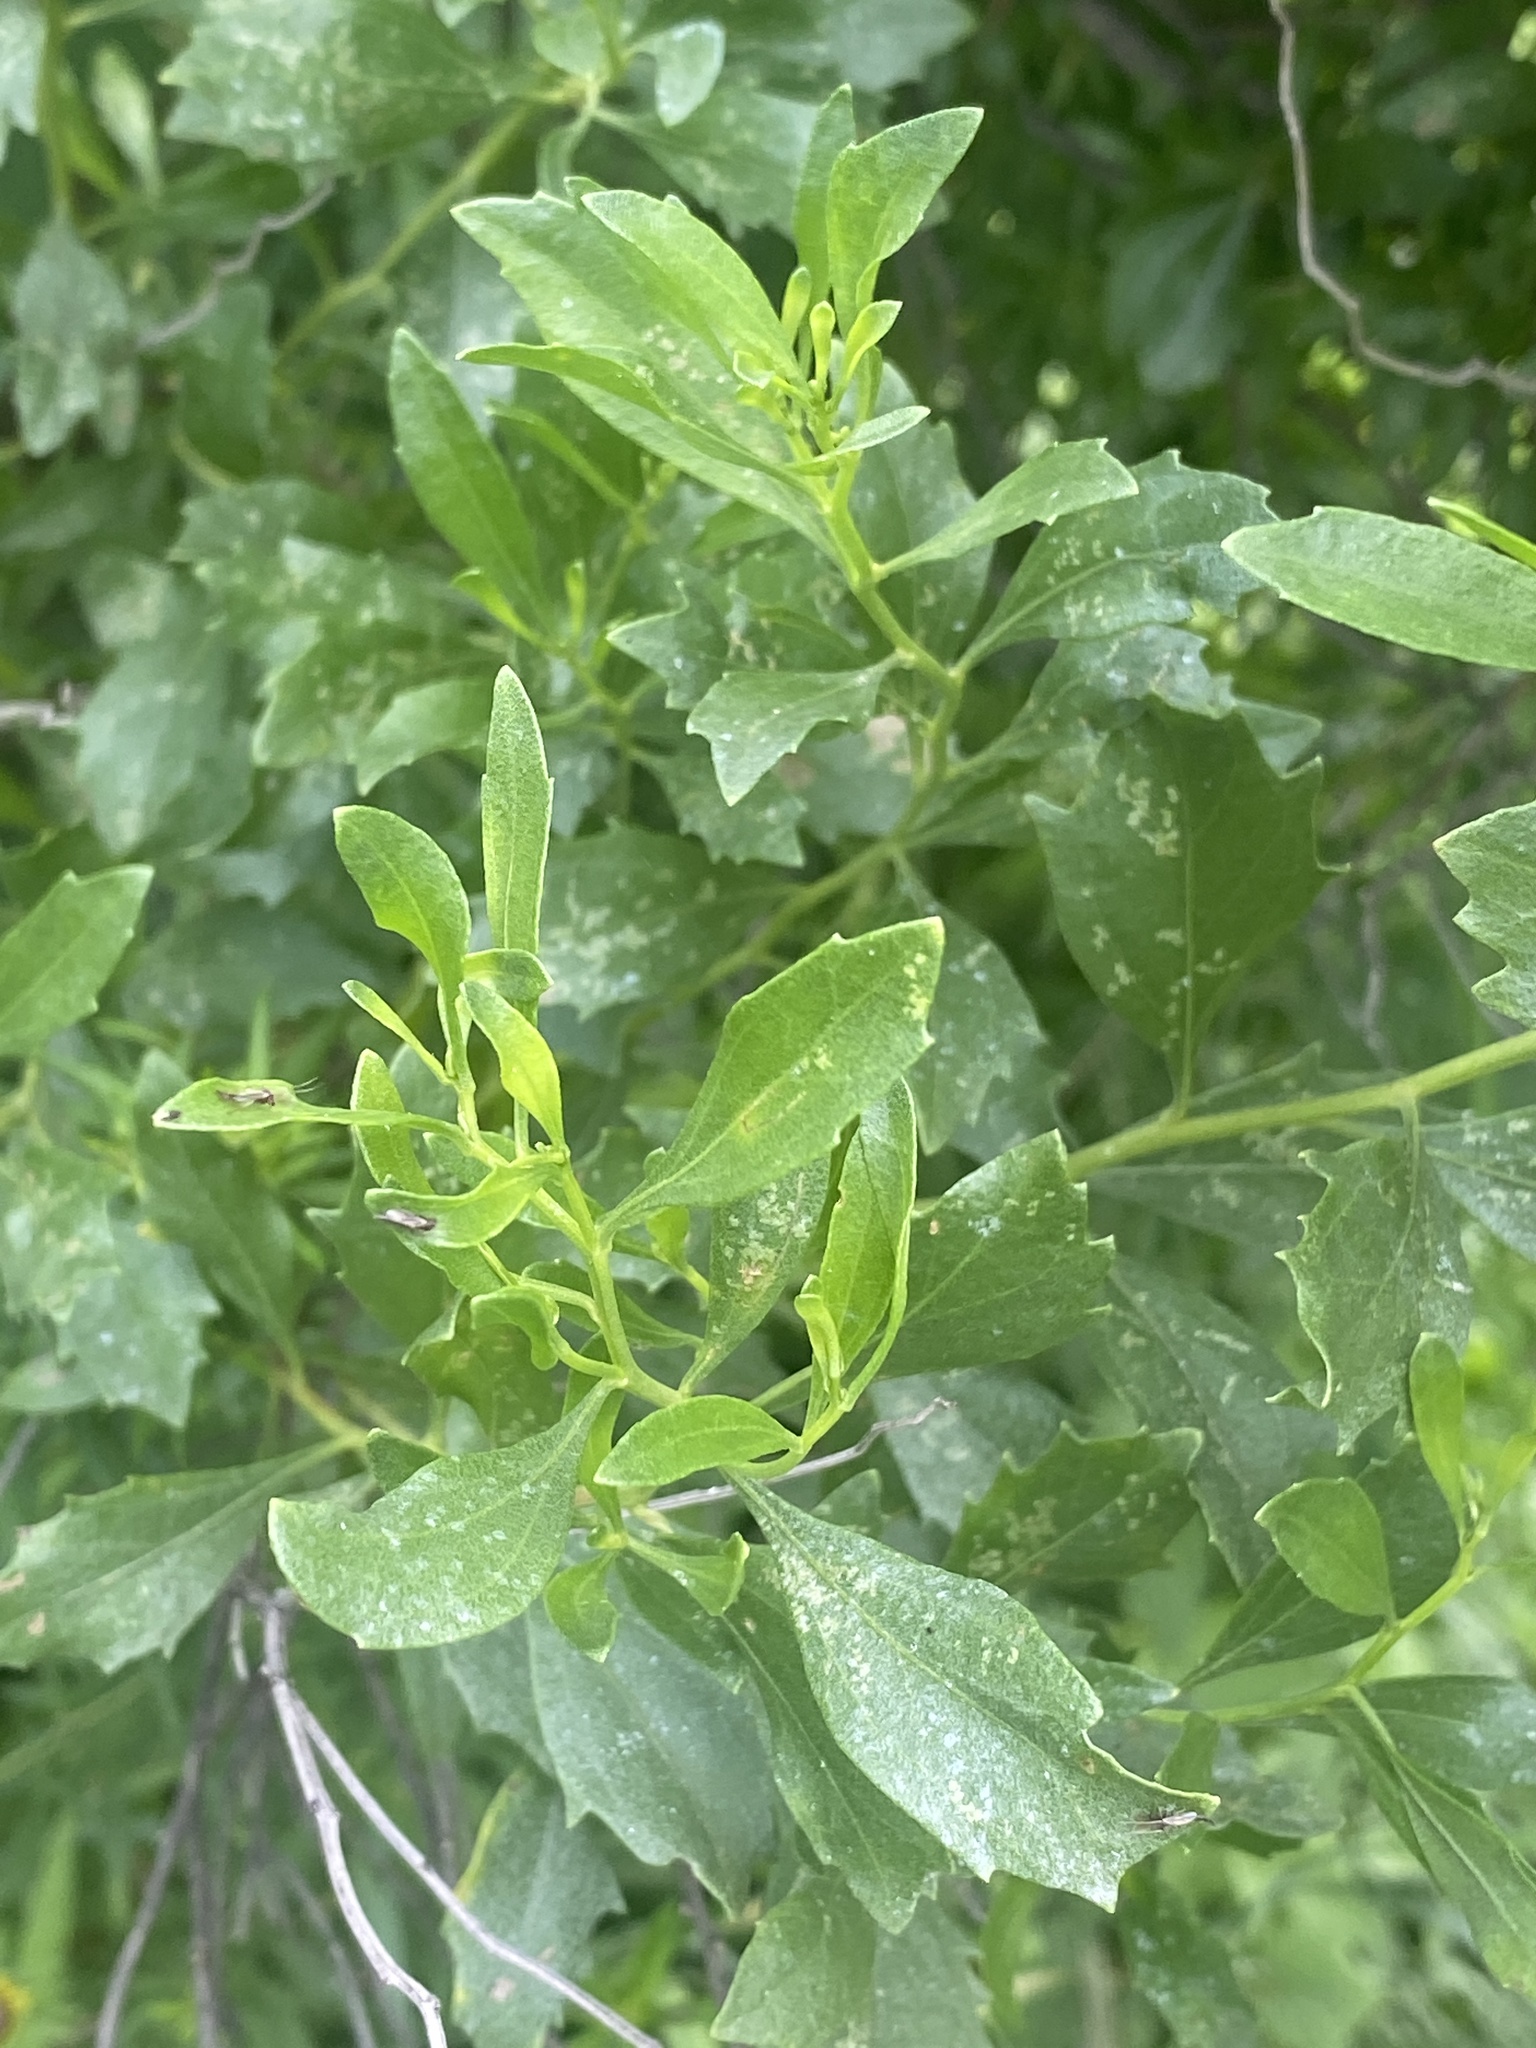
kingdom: Plantae
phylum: Tracheophyta
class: Magnoliopsida
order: Asterales
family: Asteraceae
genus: Baccharis
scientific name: Baccharis halimifolia
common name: Eastern baccharis
